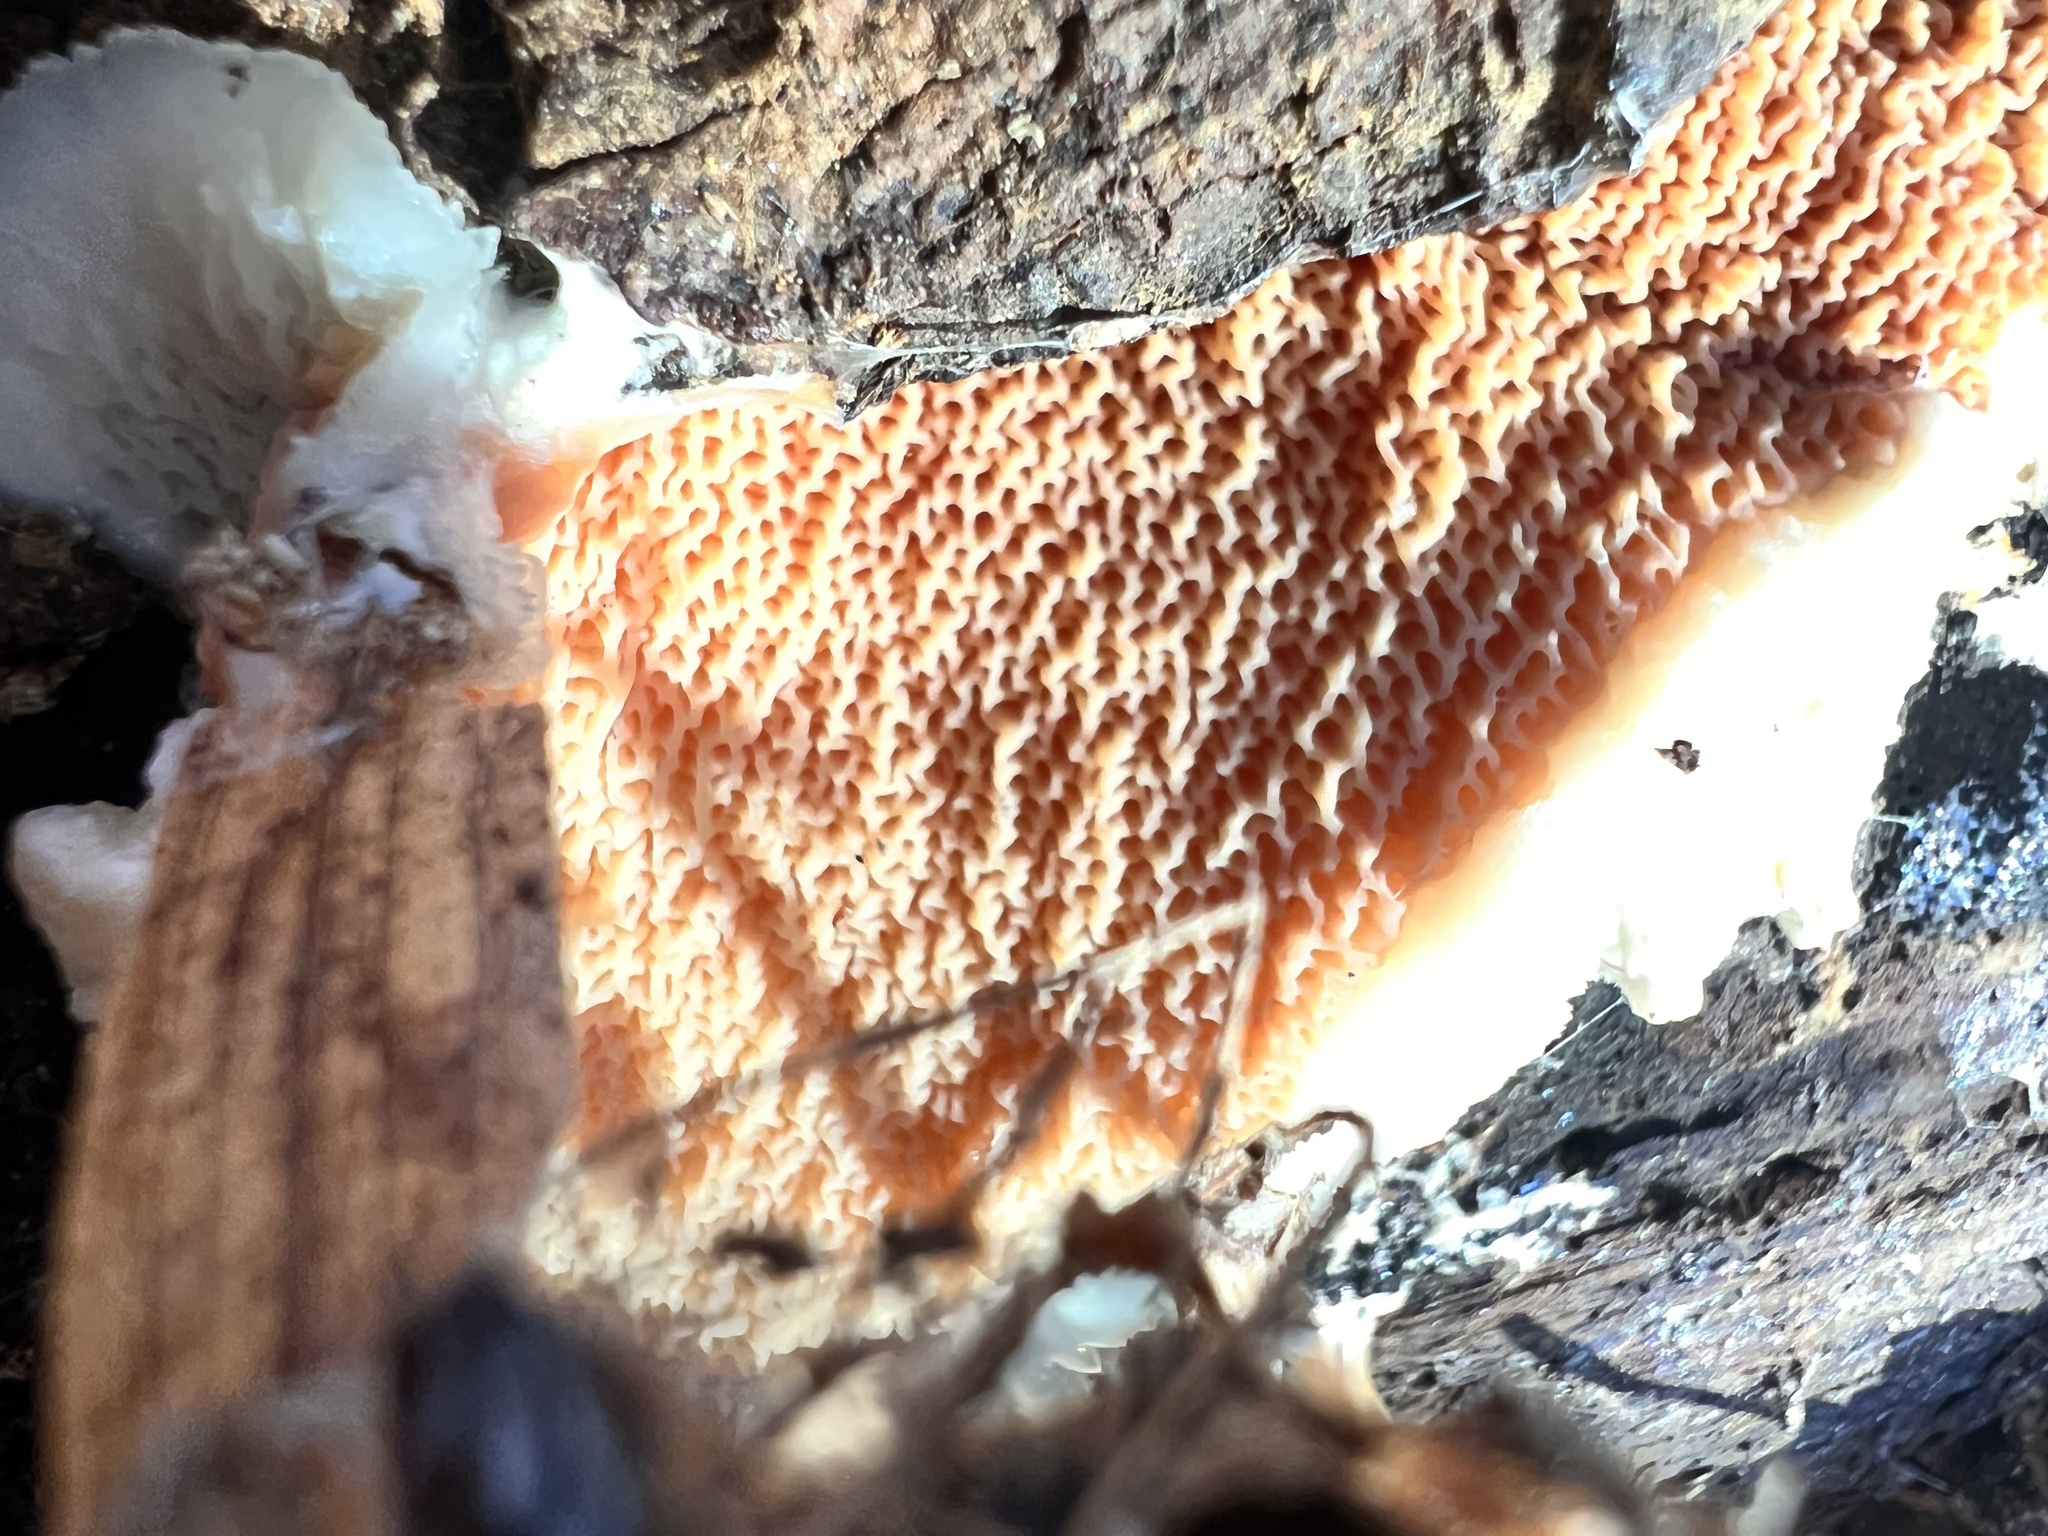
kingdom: Fungi
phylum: Basidiomycota
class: Agaricomycetes
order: Polyporales
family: Meruliaceae
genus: Phlebia
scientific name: Phlebia tremellosa
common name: Jelly rot
